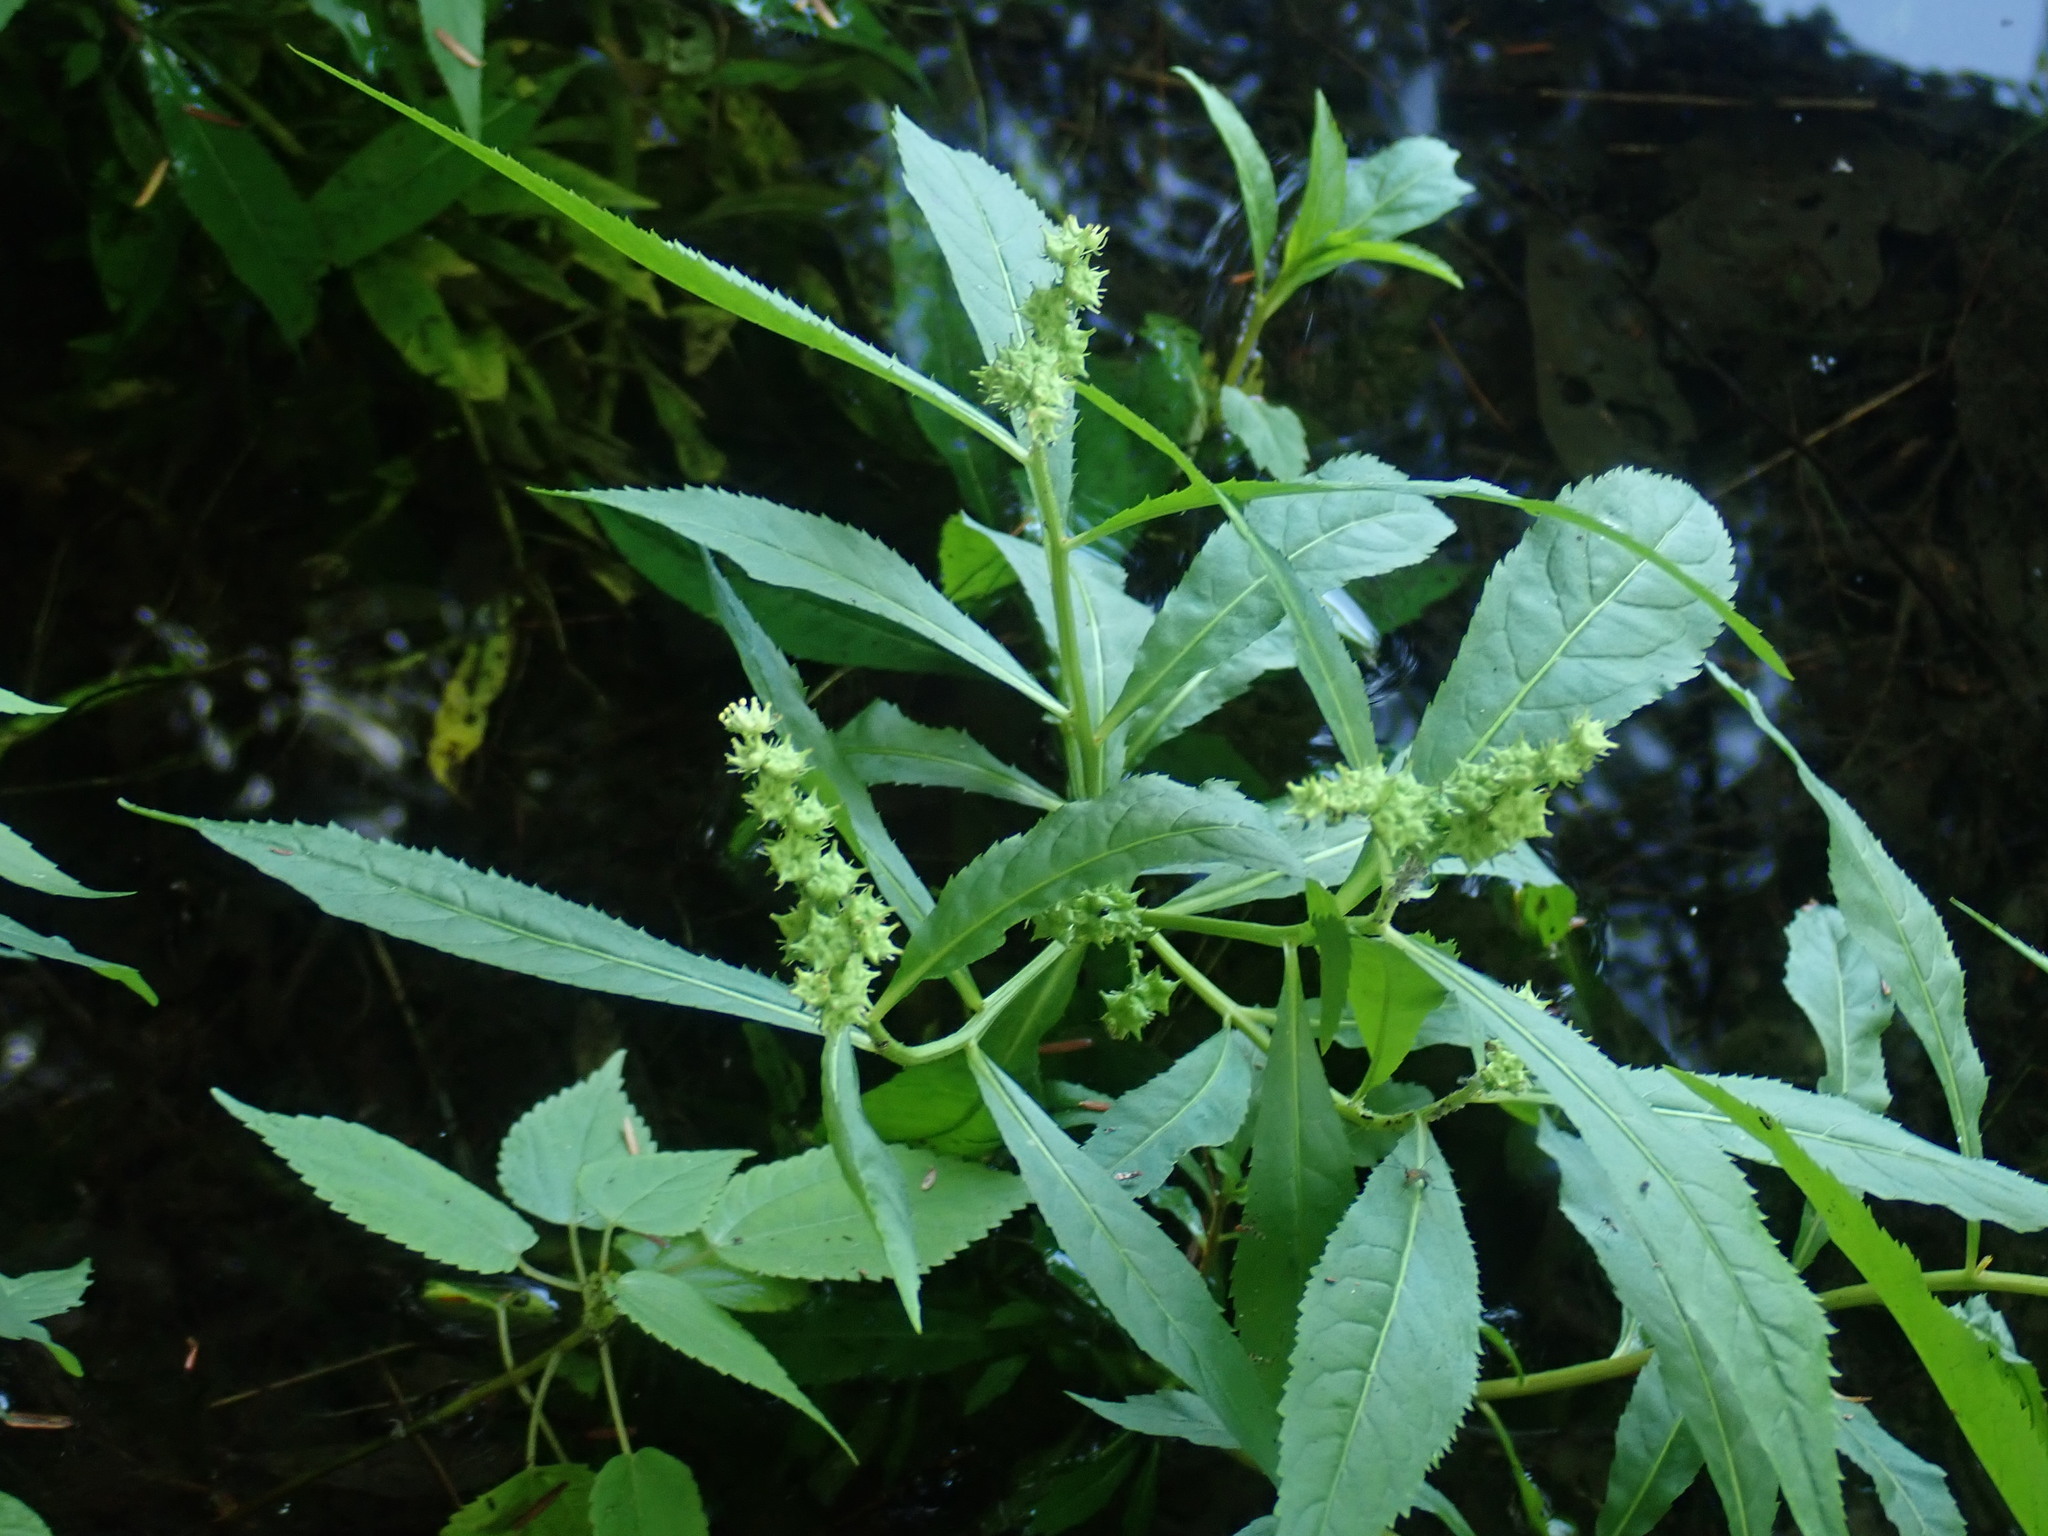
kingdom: Plantae
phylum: Tracheophyta
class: Magnoliopsida
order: Saxifragales
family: Penthoraceae
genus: Penthorum
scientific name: Penthorum sedoides
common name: Ditch stonecrop
